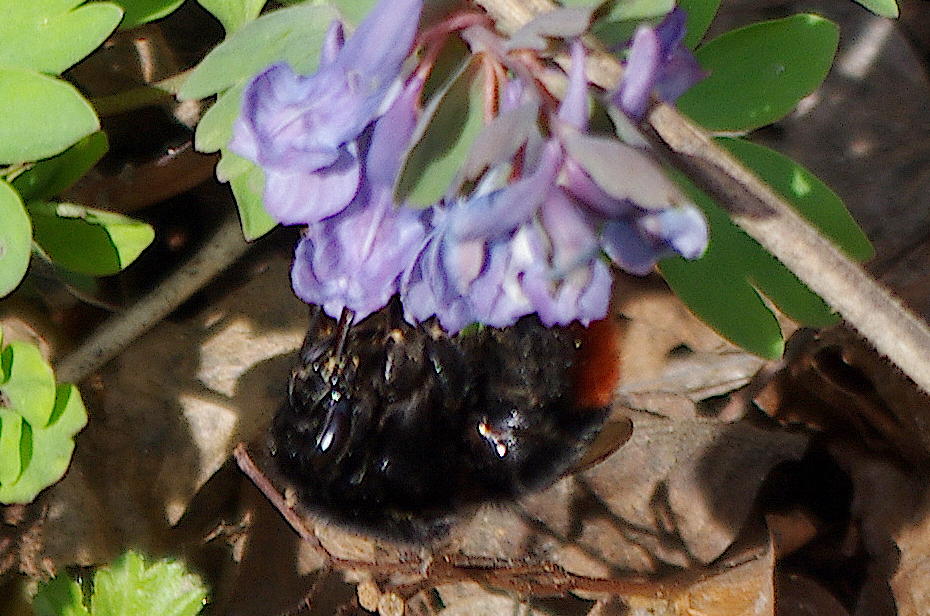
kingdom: Animalia
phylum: Arthropoda
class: Insecta
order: Hymenoptera
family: Apidae
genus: Bombus
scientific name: Bombus lapidarius
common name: Large red-tailed humble-bee
